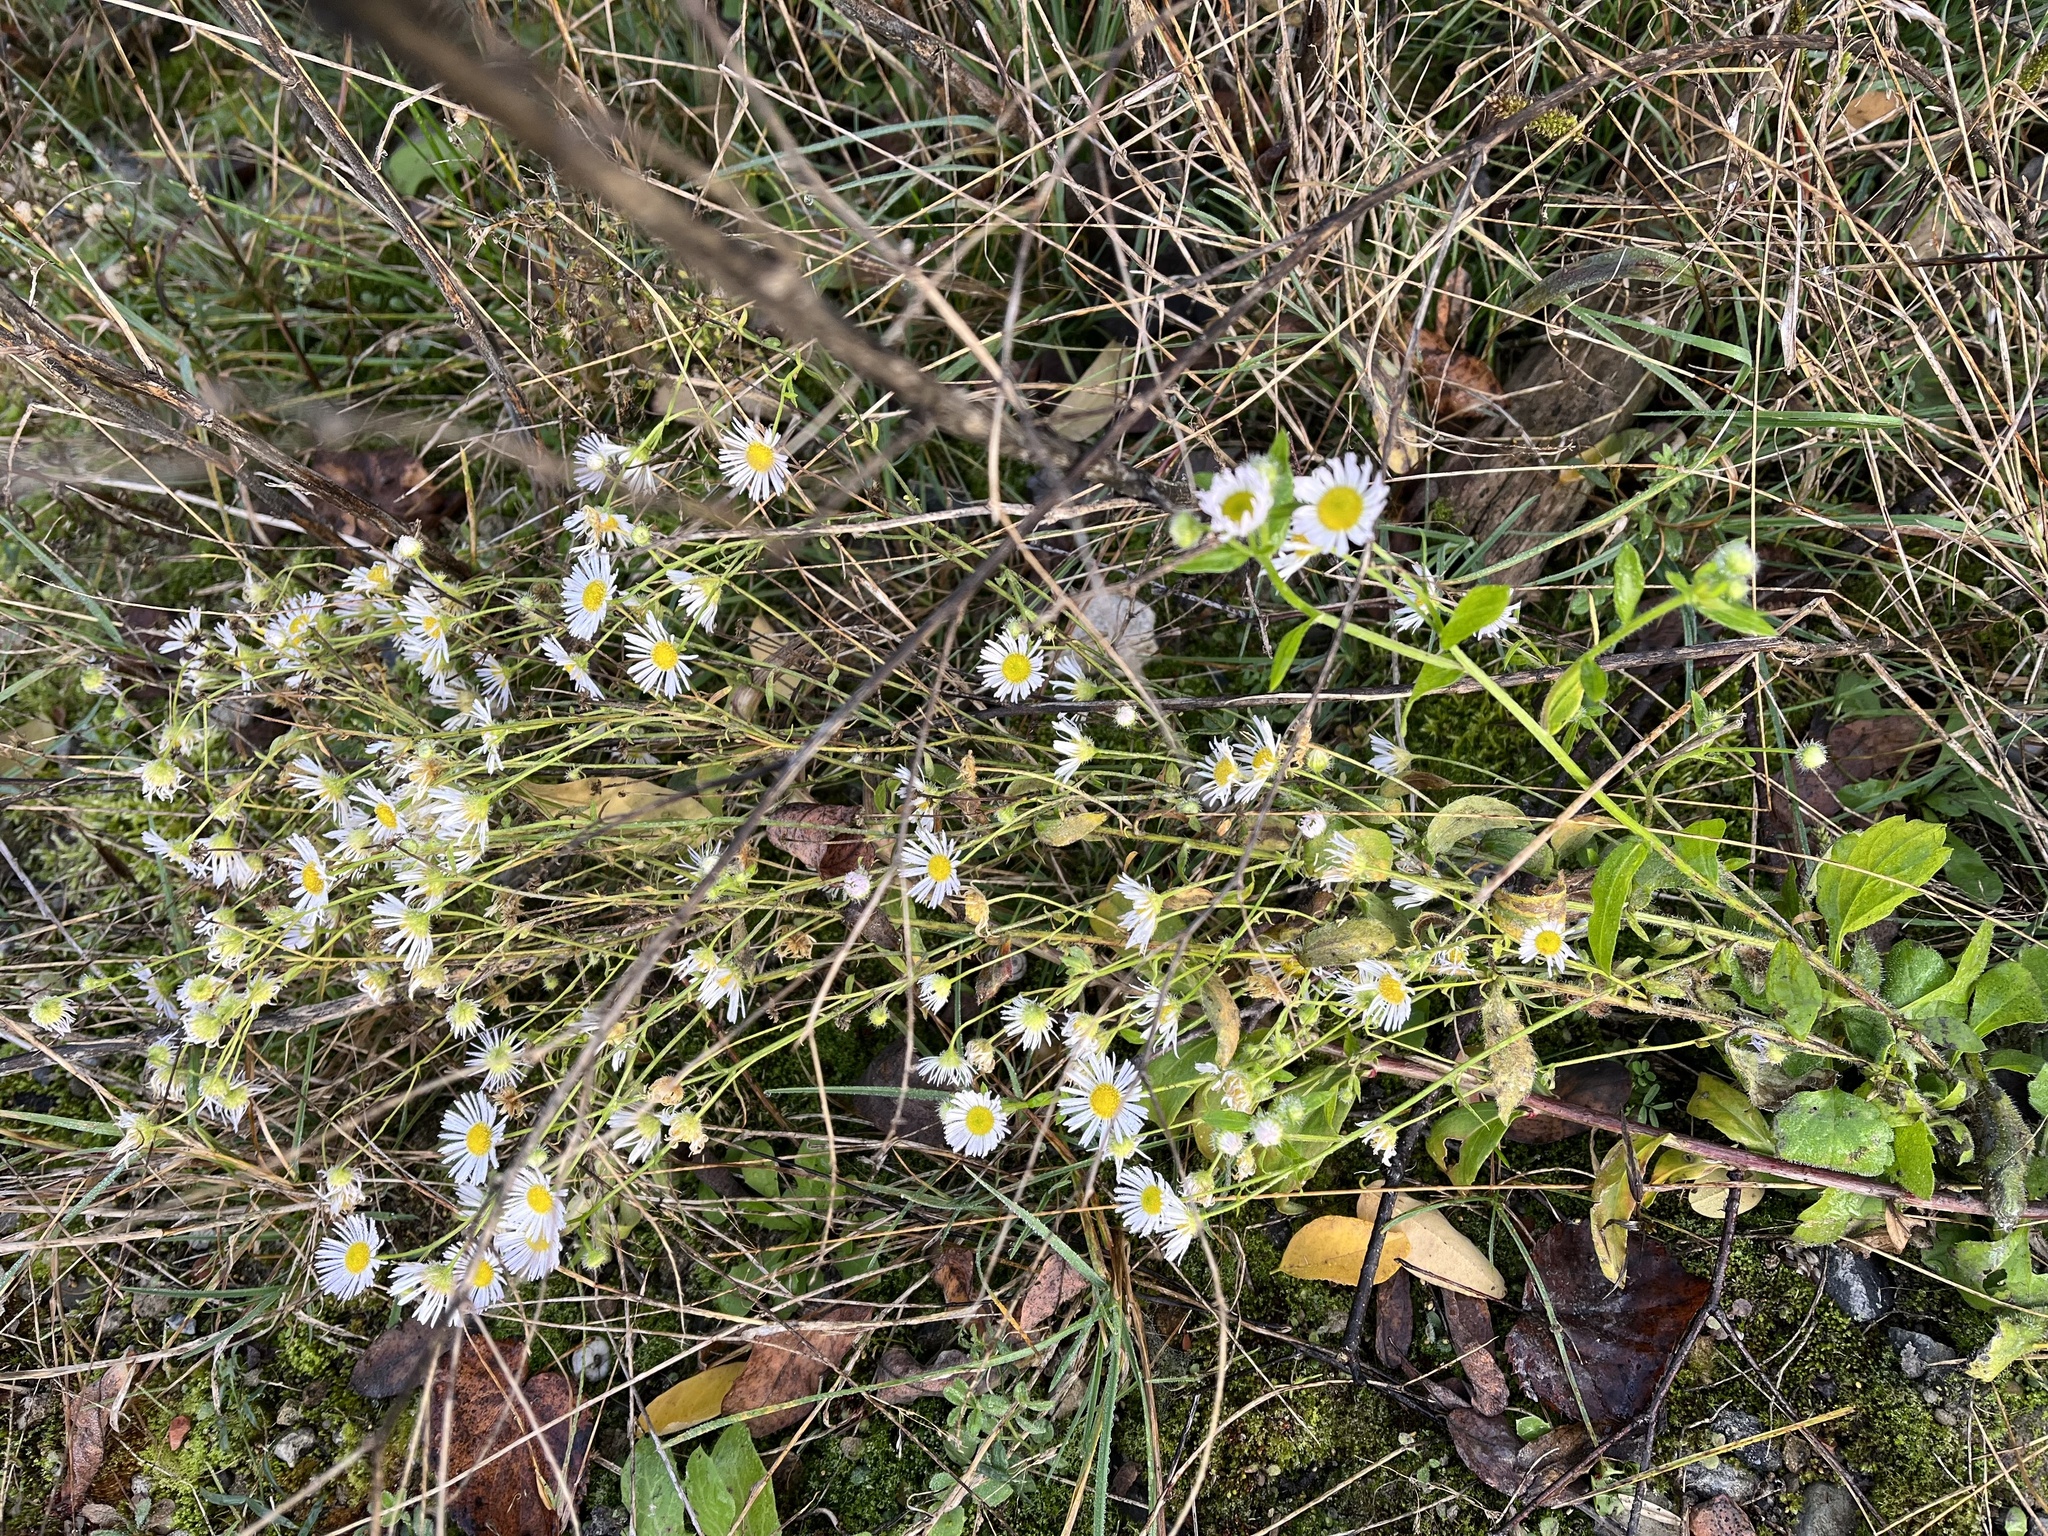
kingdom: Plantae
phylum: Tracheophyta
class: Magnoliopsida
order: Asterales
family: Asteraceae
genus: Erigeron
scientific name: Erigeron annuus
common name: Tall fleabane
